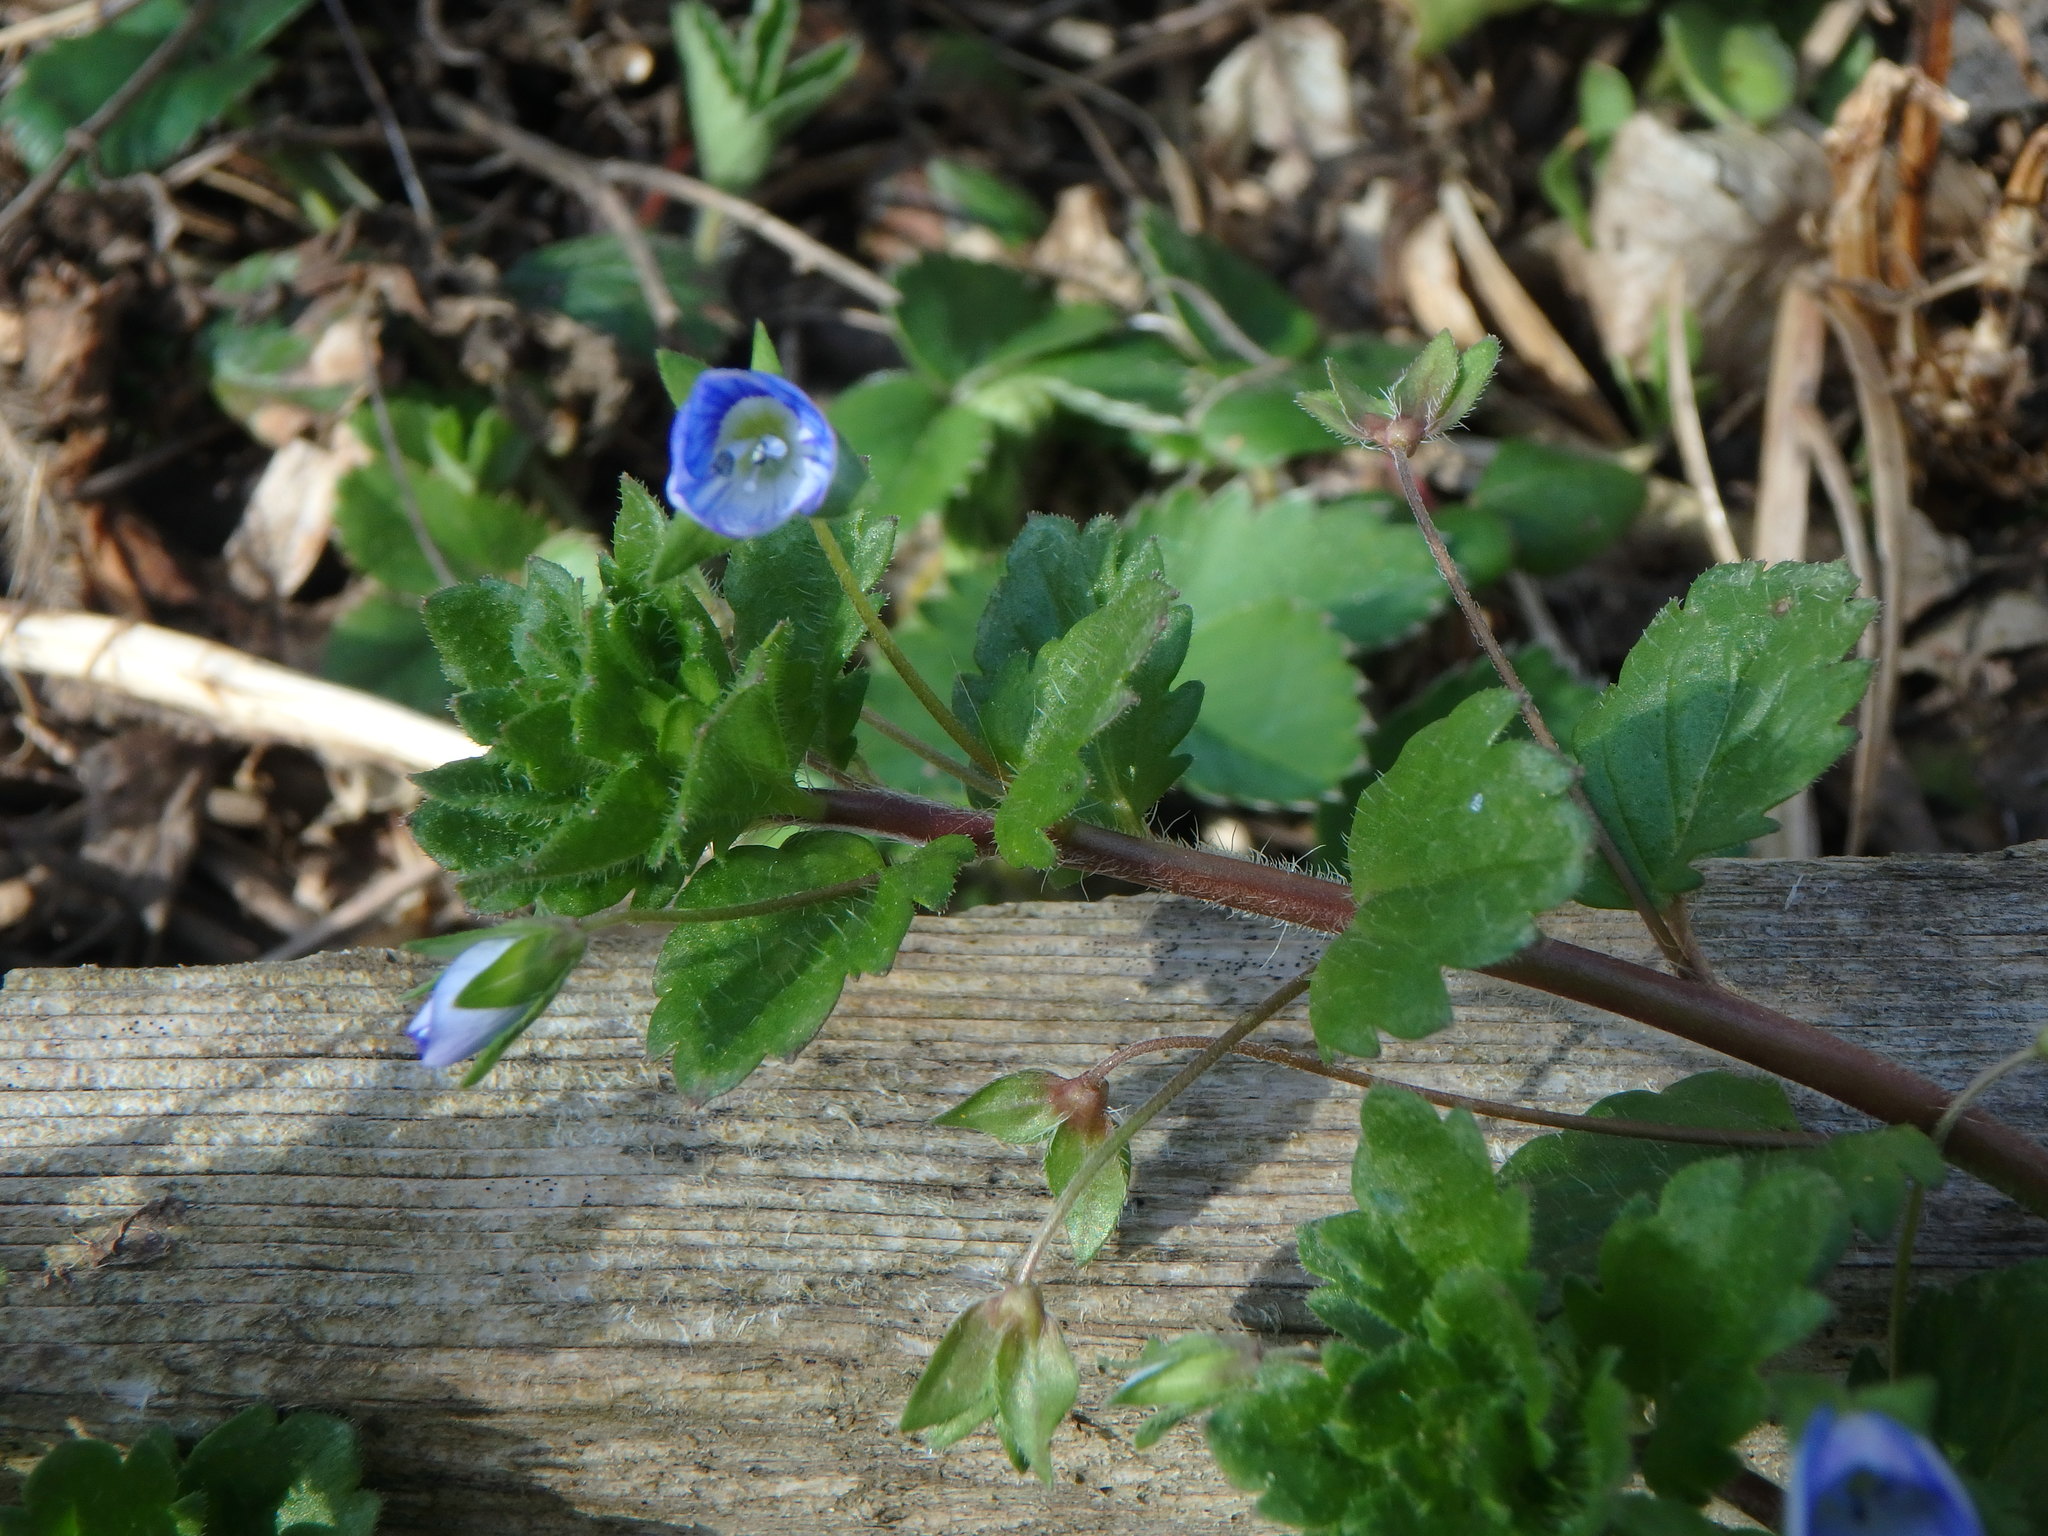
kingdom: Plantae
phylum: Tracheophyta
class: Magnoliopsida
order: Lamiales
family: Plantaginaceae
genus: Veronica
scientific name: Veronica persica
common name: Common field-speedwell
